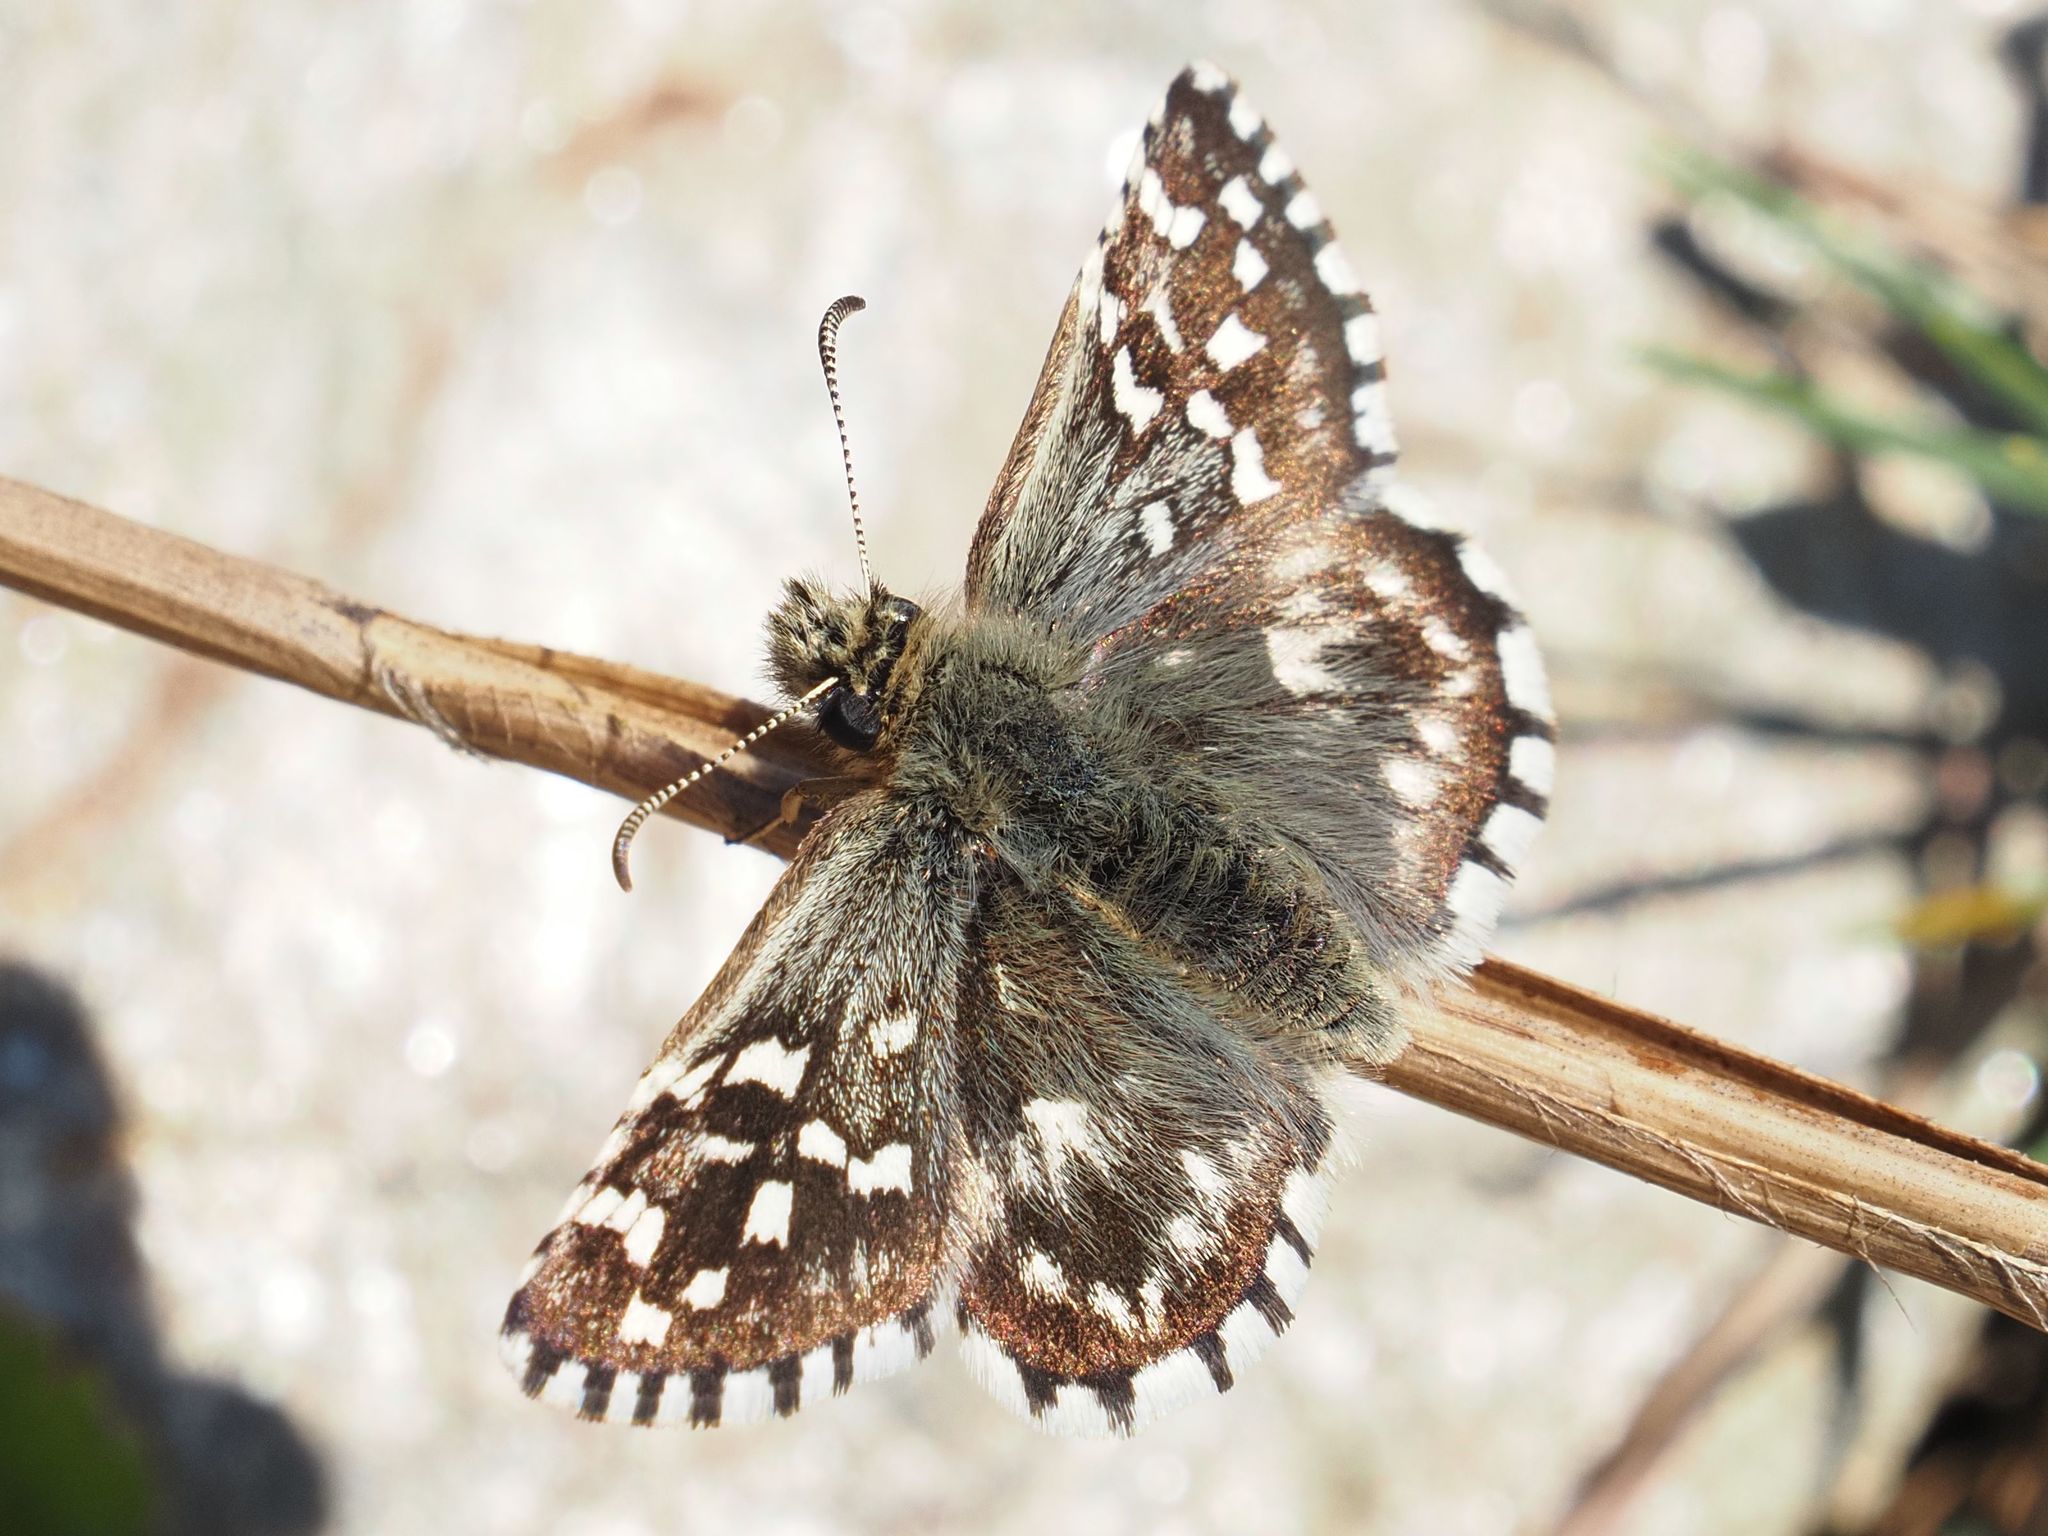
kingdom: Animalia
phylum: Arthropoda
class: Insecta
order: Lepidoptera
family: Hesperiidae
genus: Pyrgus
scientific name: Pyrgus malvae
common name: Grizzled skipper
